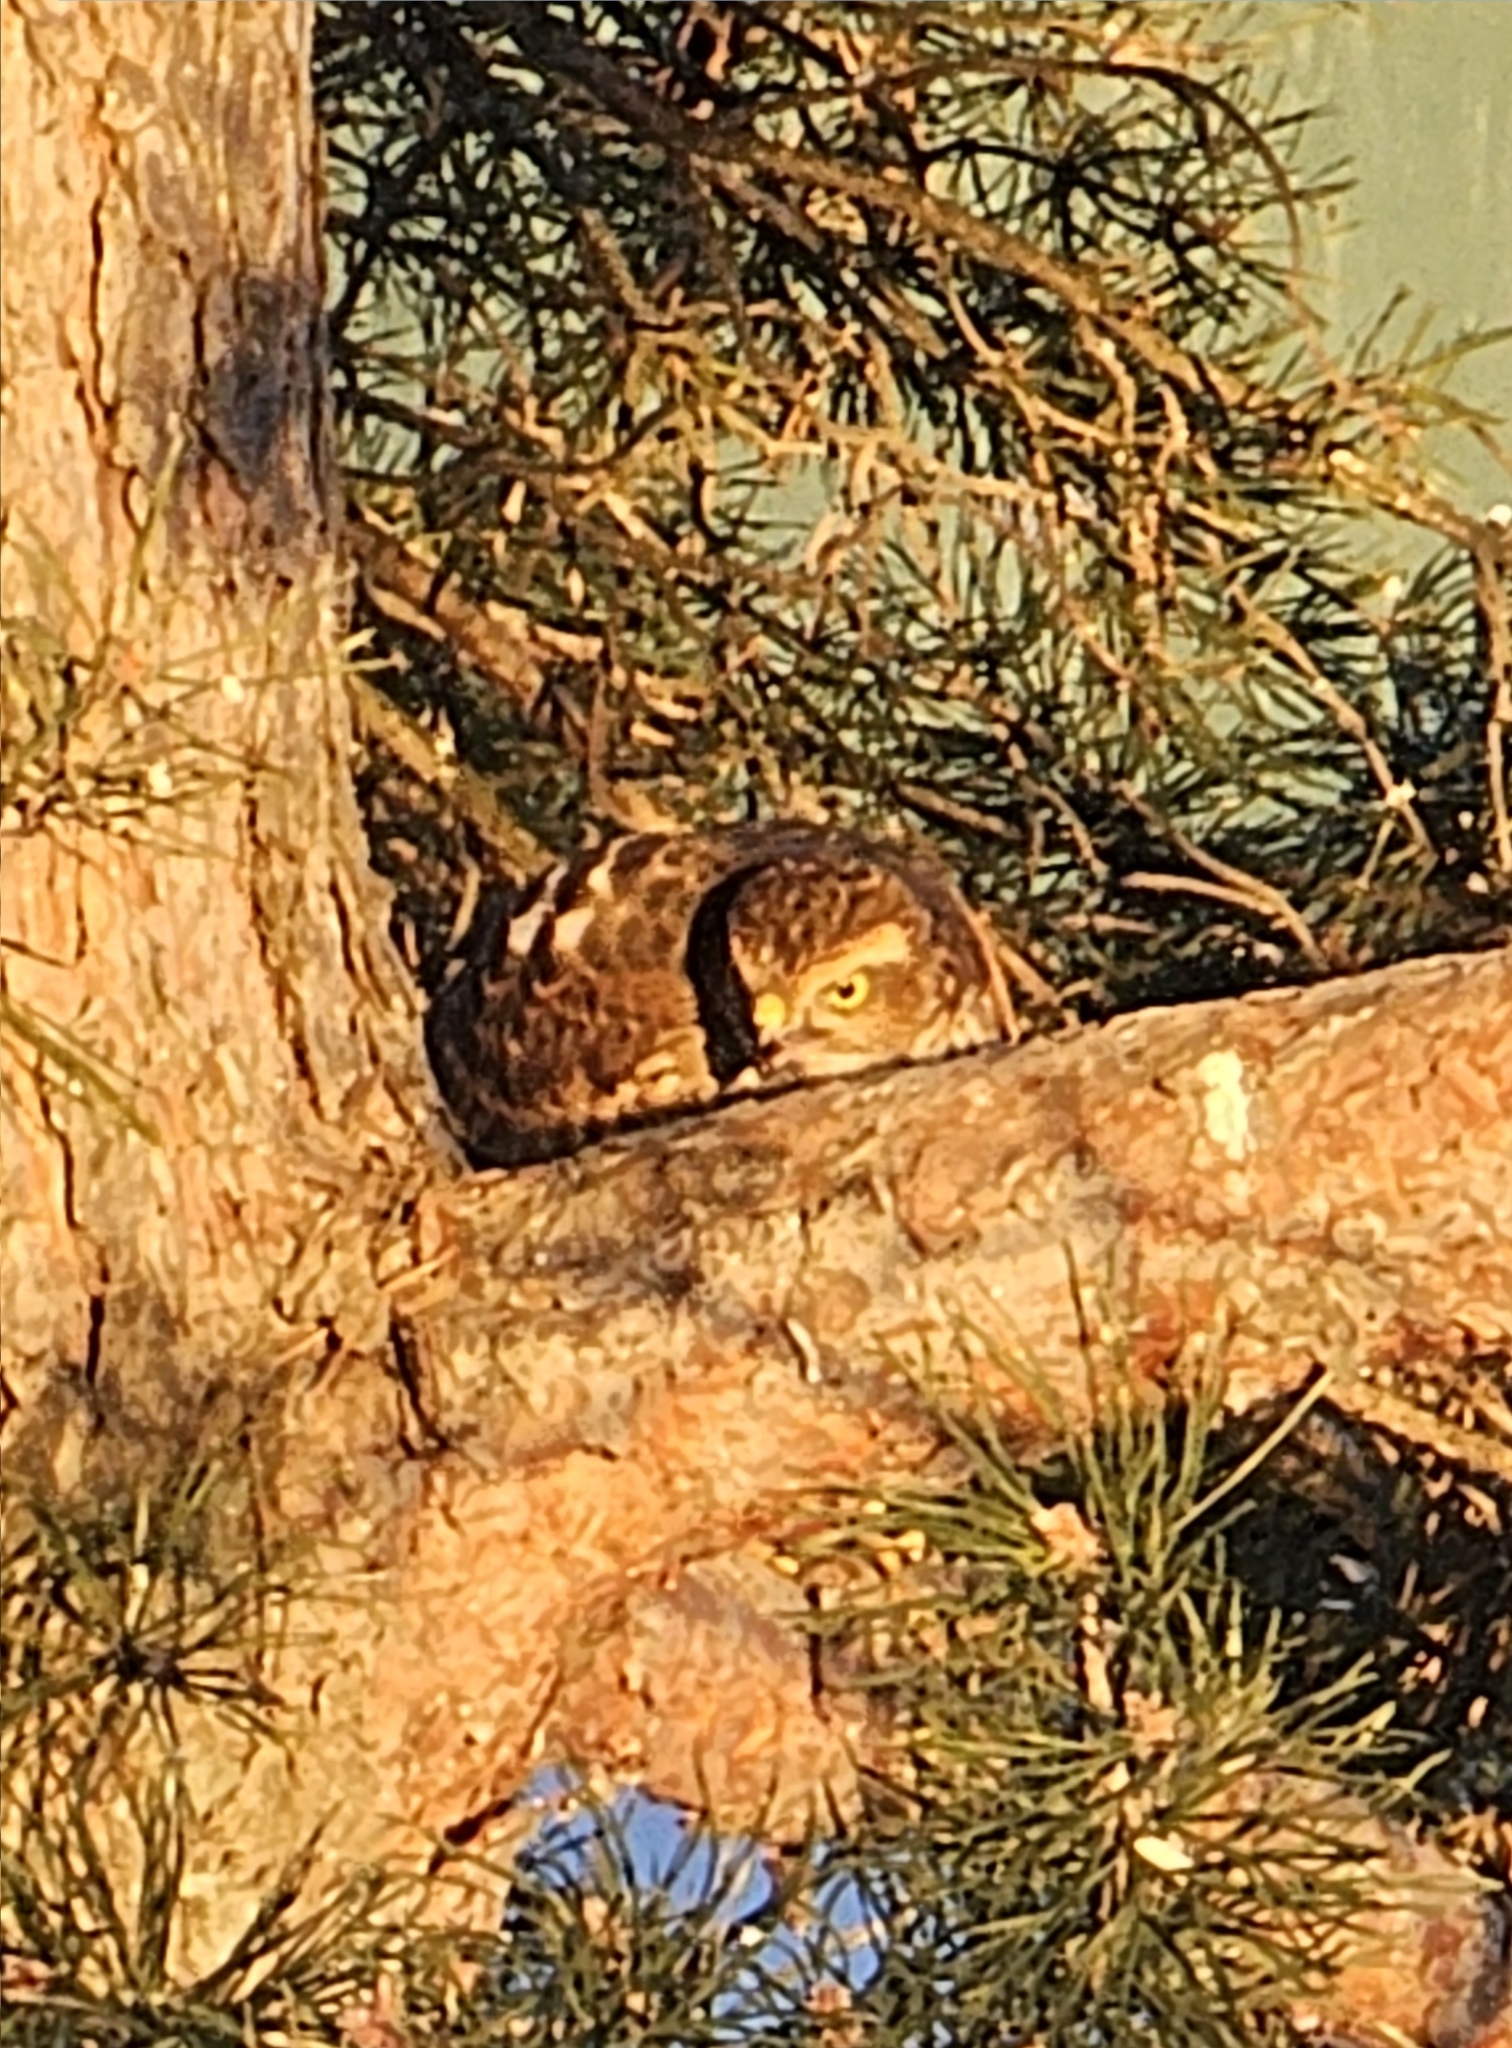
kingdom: Animalia
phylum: Chordata
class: Aves
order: Accipitriformes
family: Accipitridae
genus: Accipiter
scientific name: Accipiter nisus
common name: Eurasian sparrowhawk
